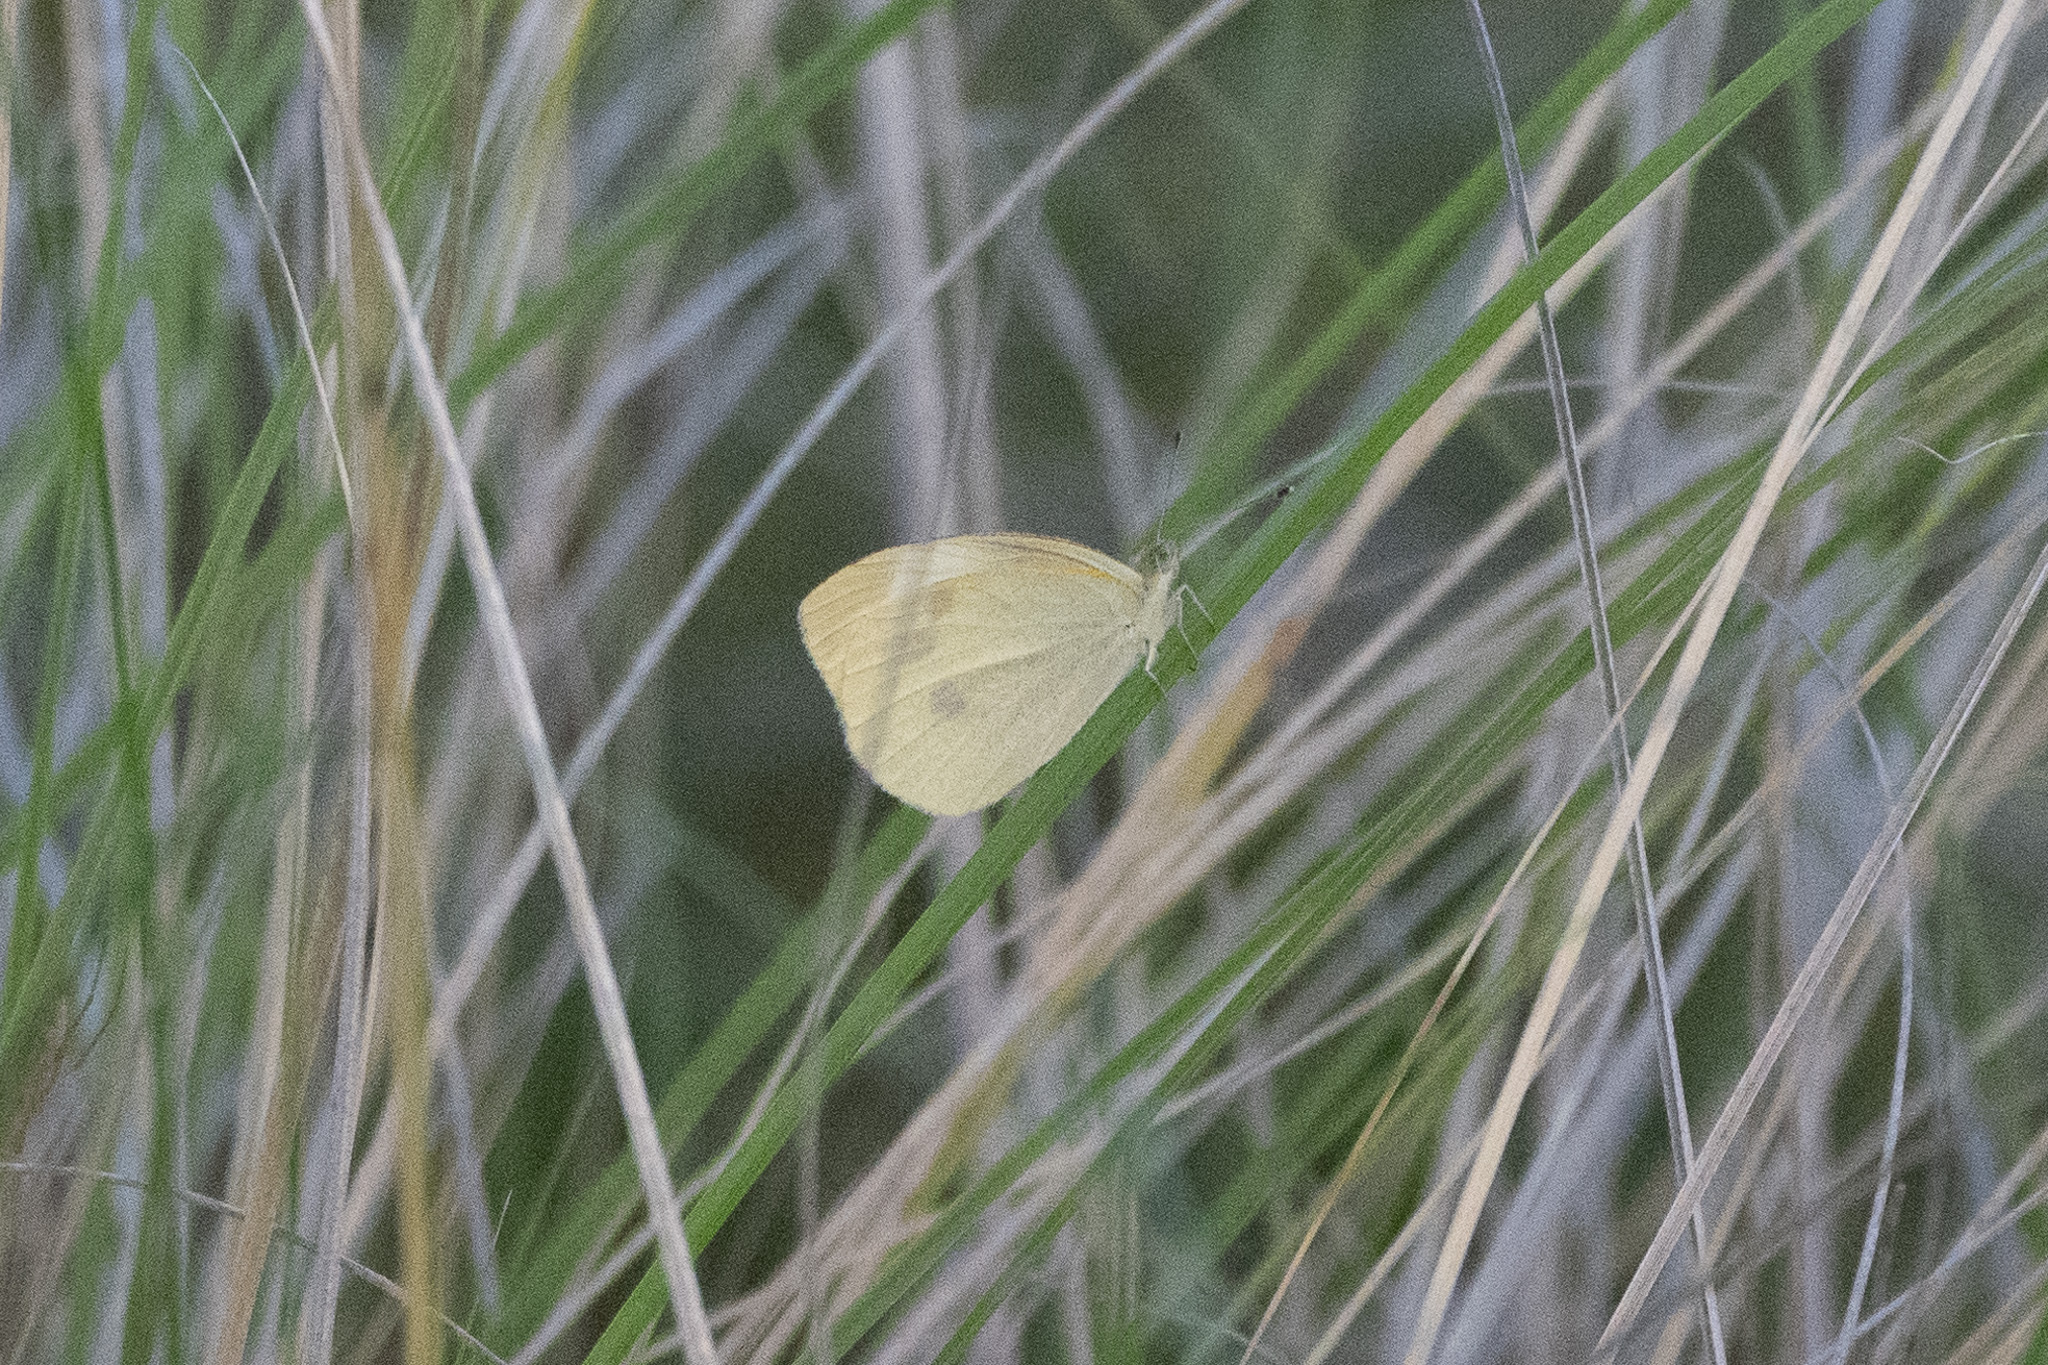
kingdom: Animalia
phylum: Arthropoda
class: Insecta
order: Lepidoptera
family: Pieridae
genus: Pieris
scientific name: Pieris rapae
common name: Small white
